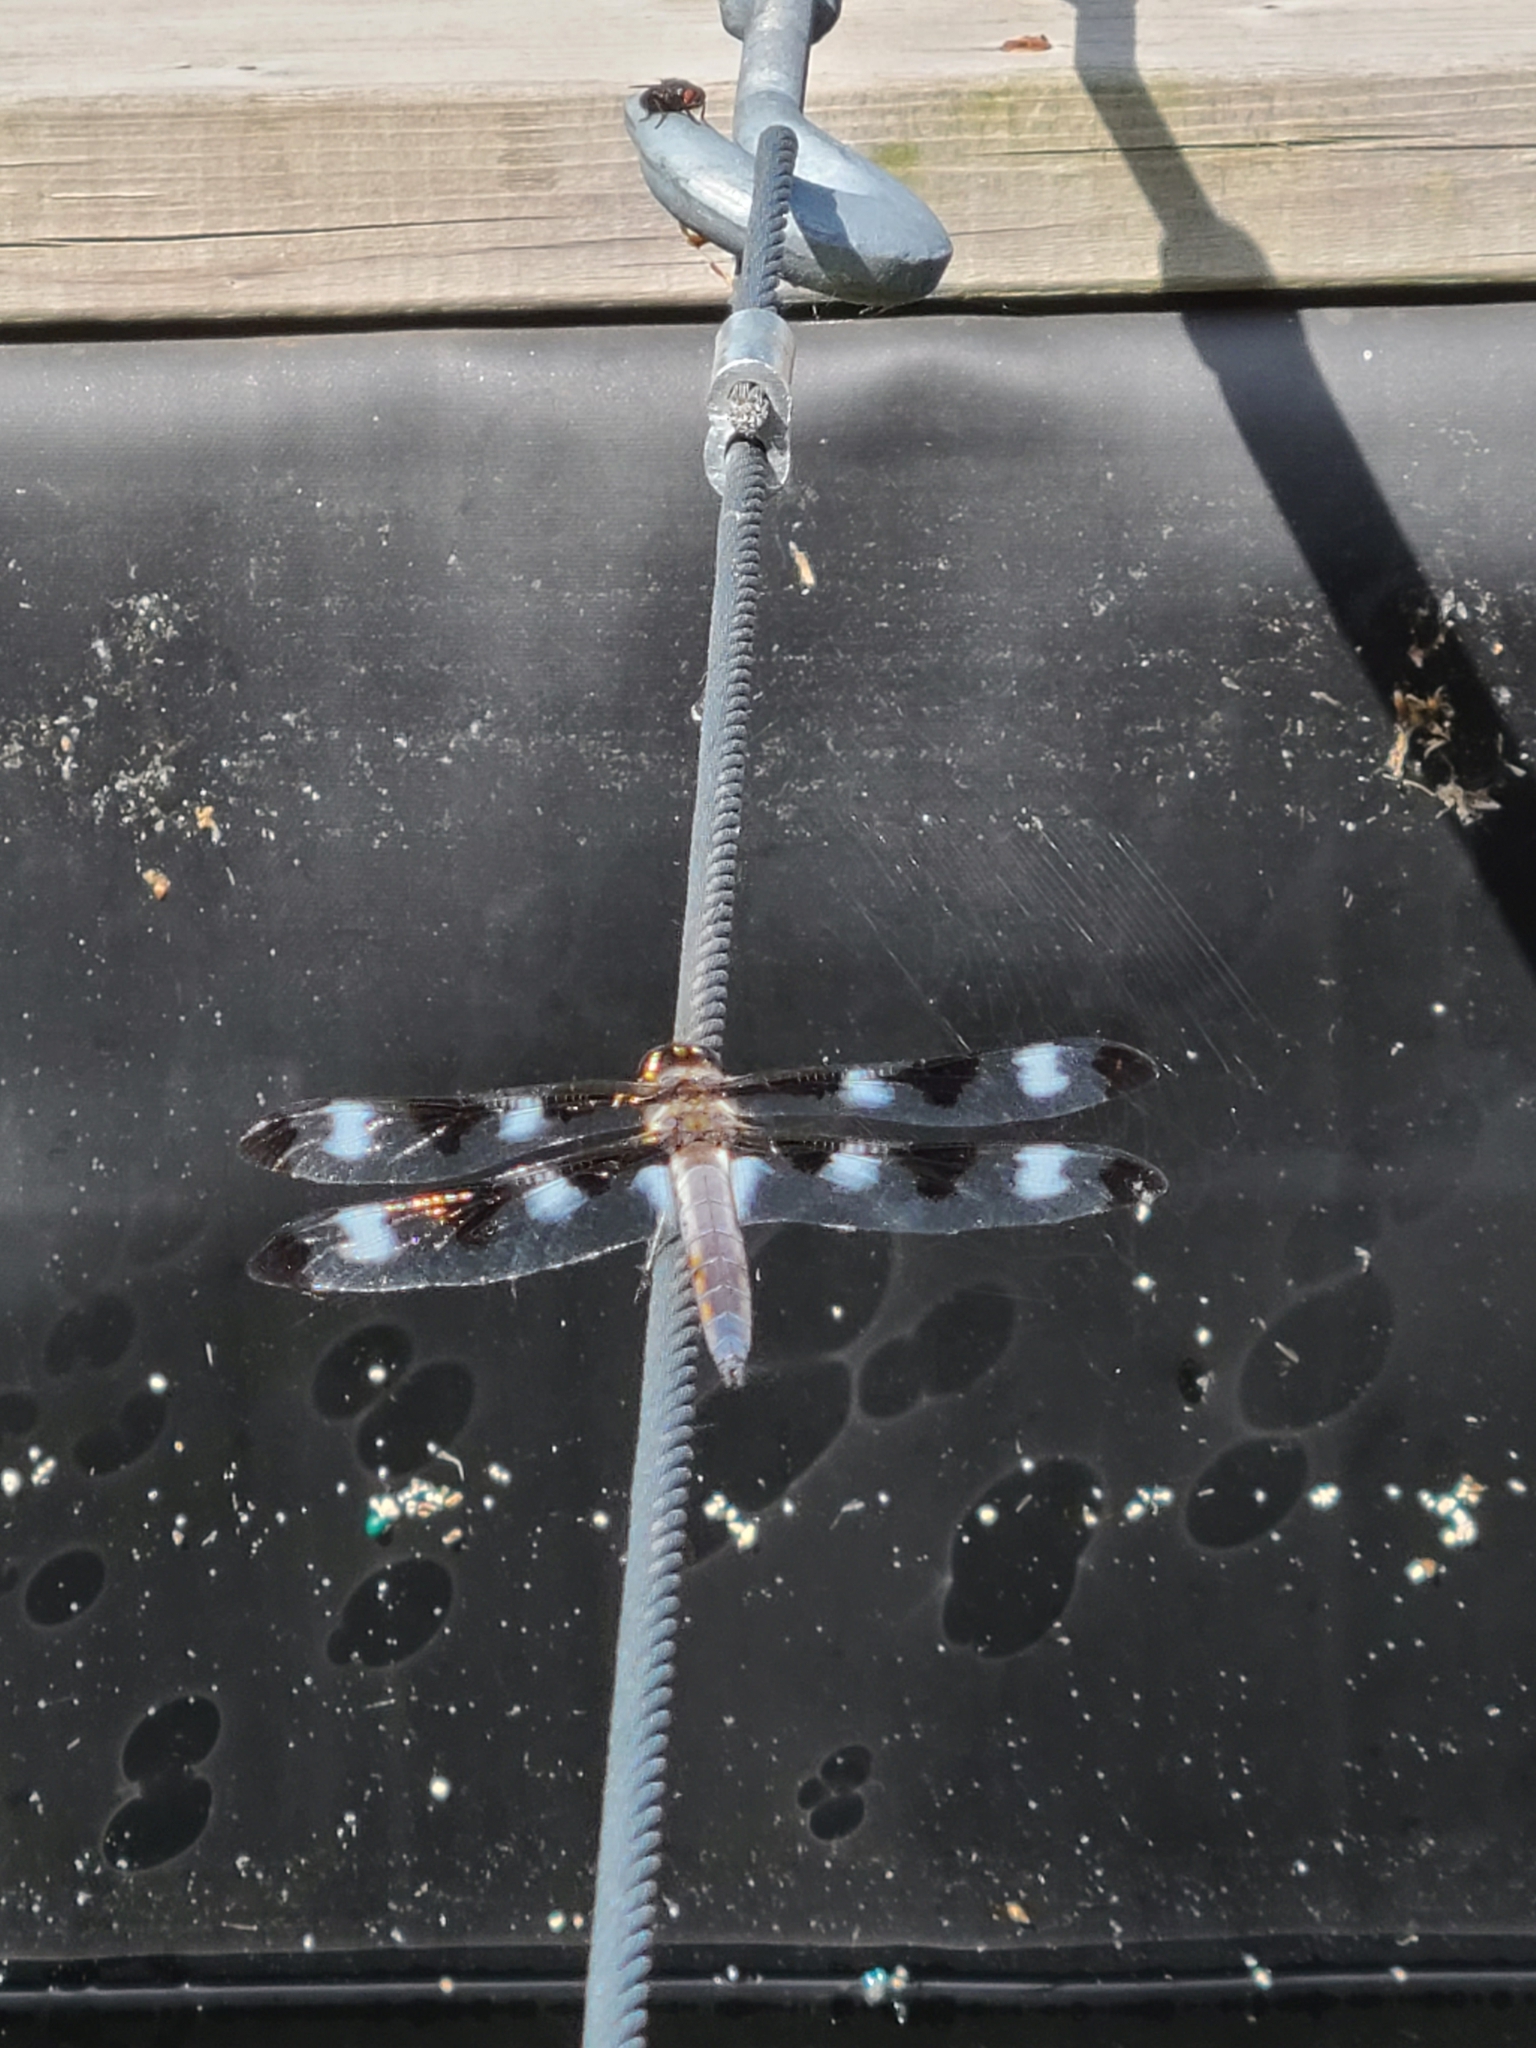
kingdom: Animalia
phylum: Arthropoda
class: Insecta
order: Odonata
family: Libellulidae
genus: Libellula
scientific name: Libellula pulchella
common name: Twelve-spotted skimmer
